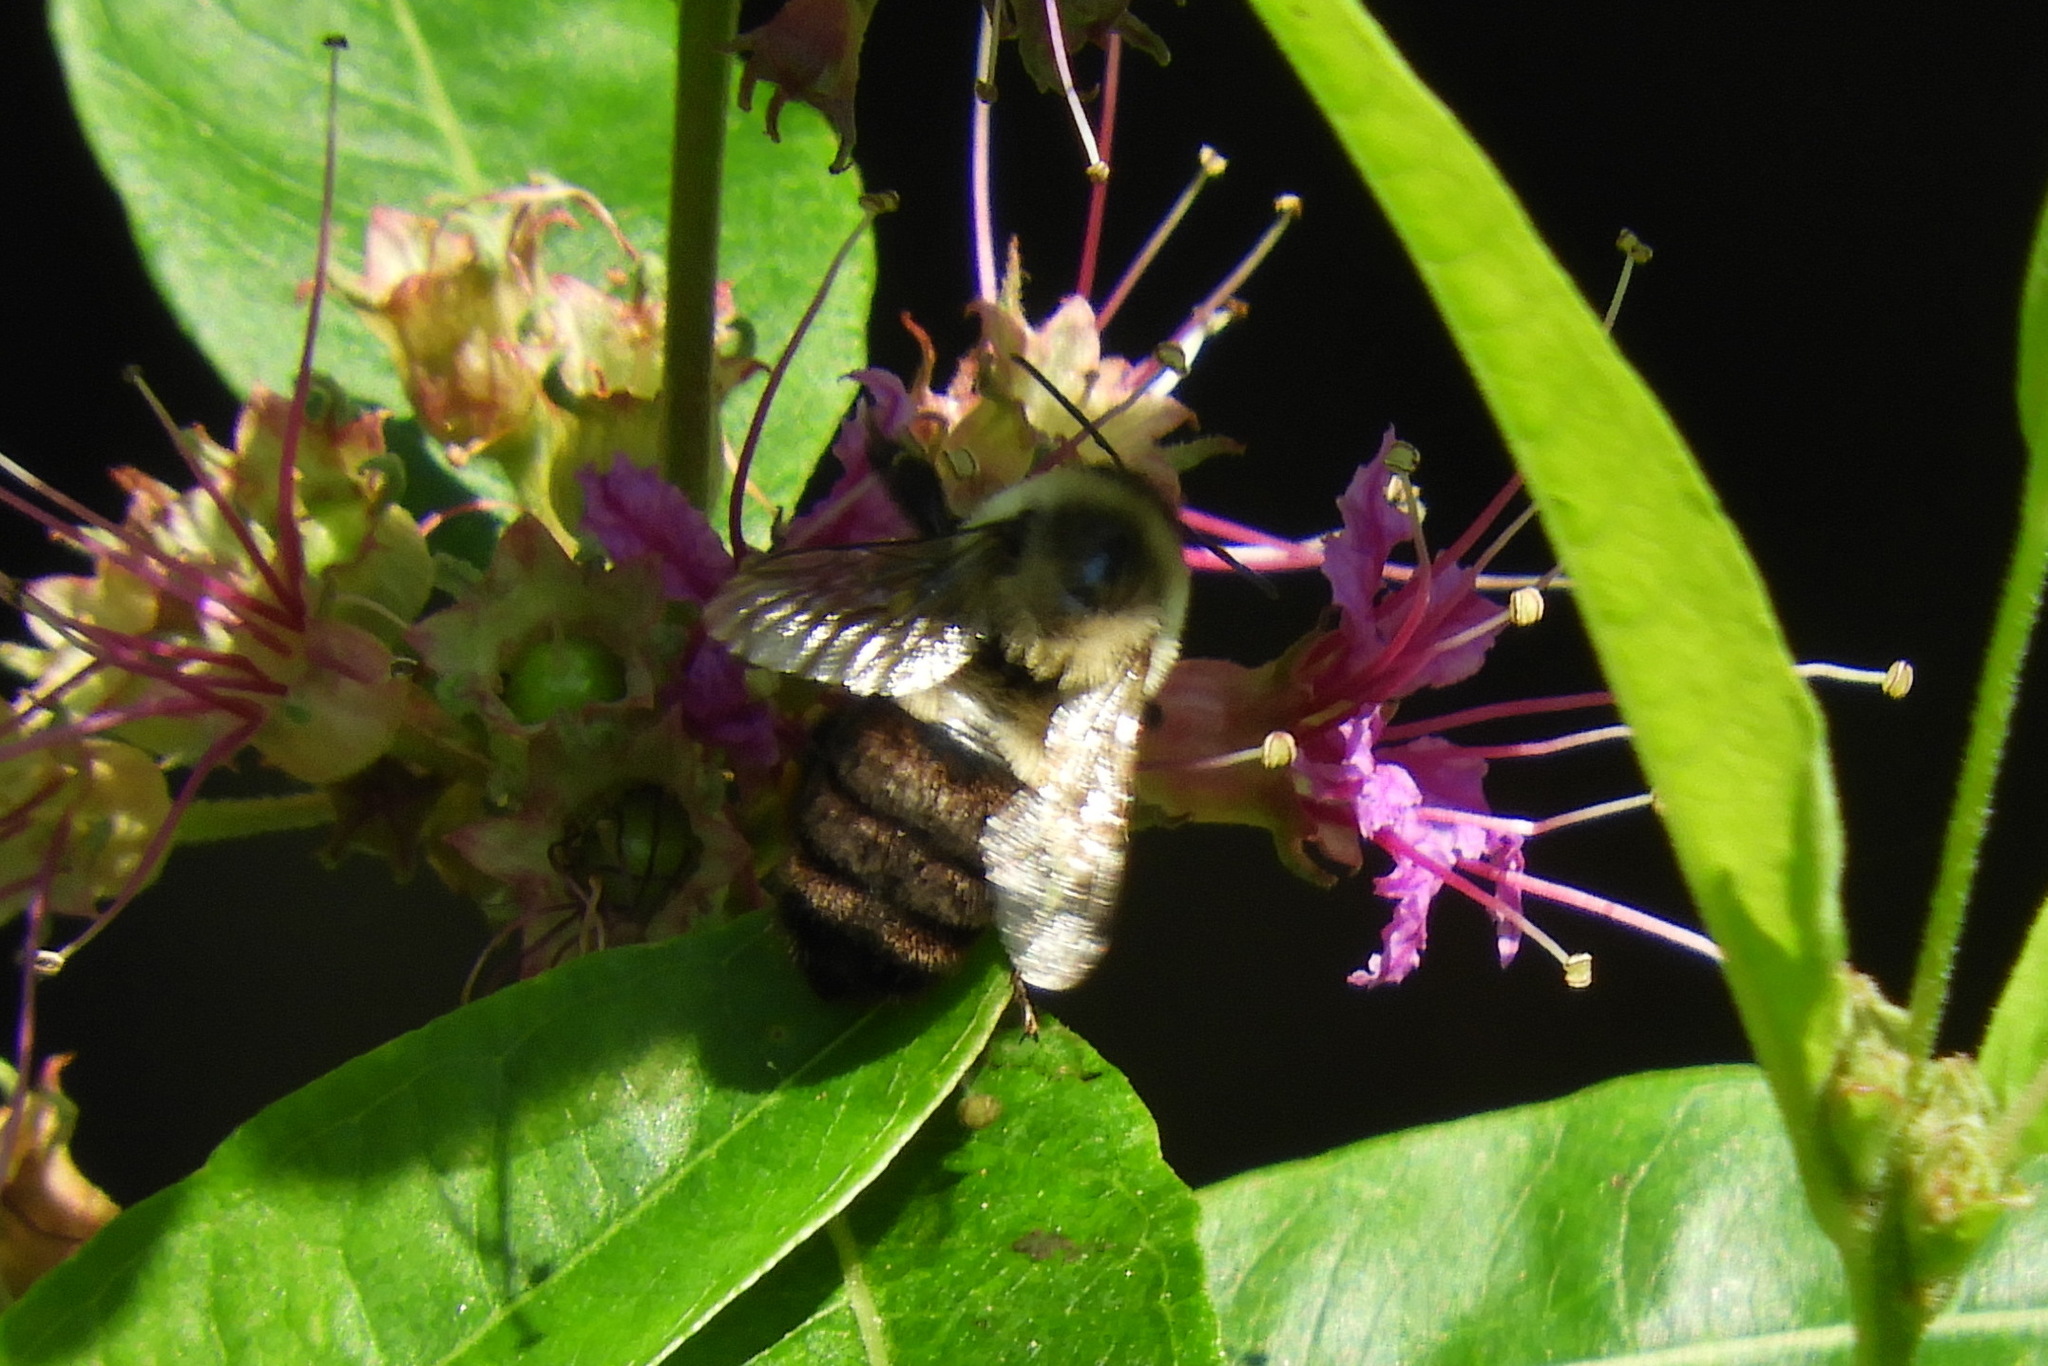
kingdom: Animalia
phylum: Arthropoda
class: Insecta
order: Hymenoptera
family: Apidae
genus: Bombus
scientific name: Bombus impatiens
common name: Common eastern bumble bee
